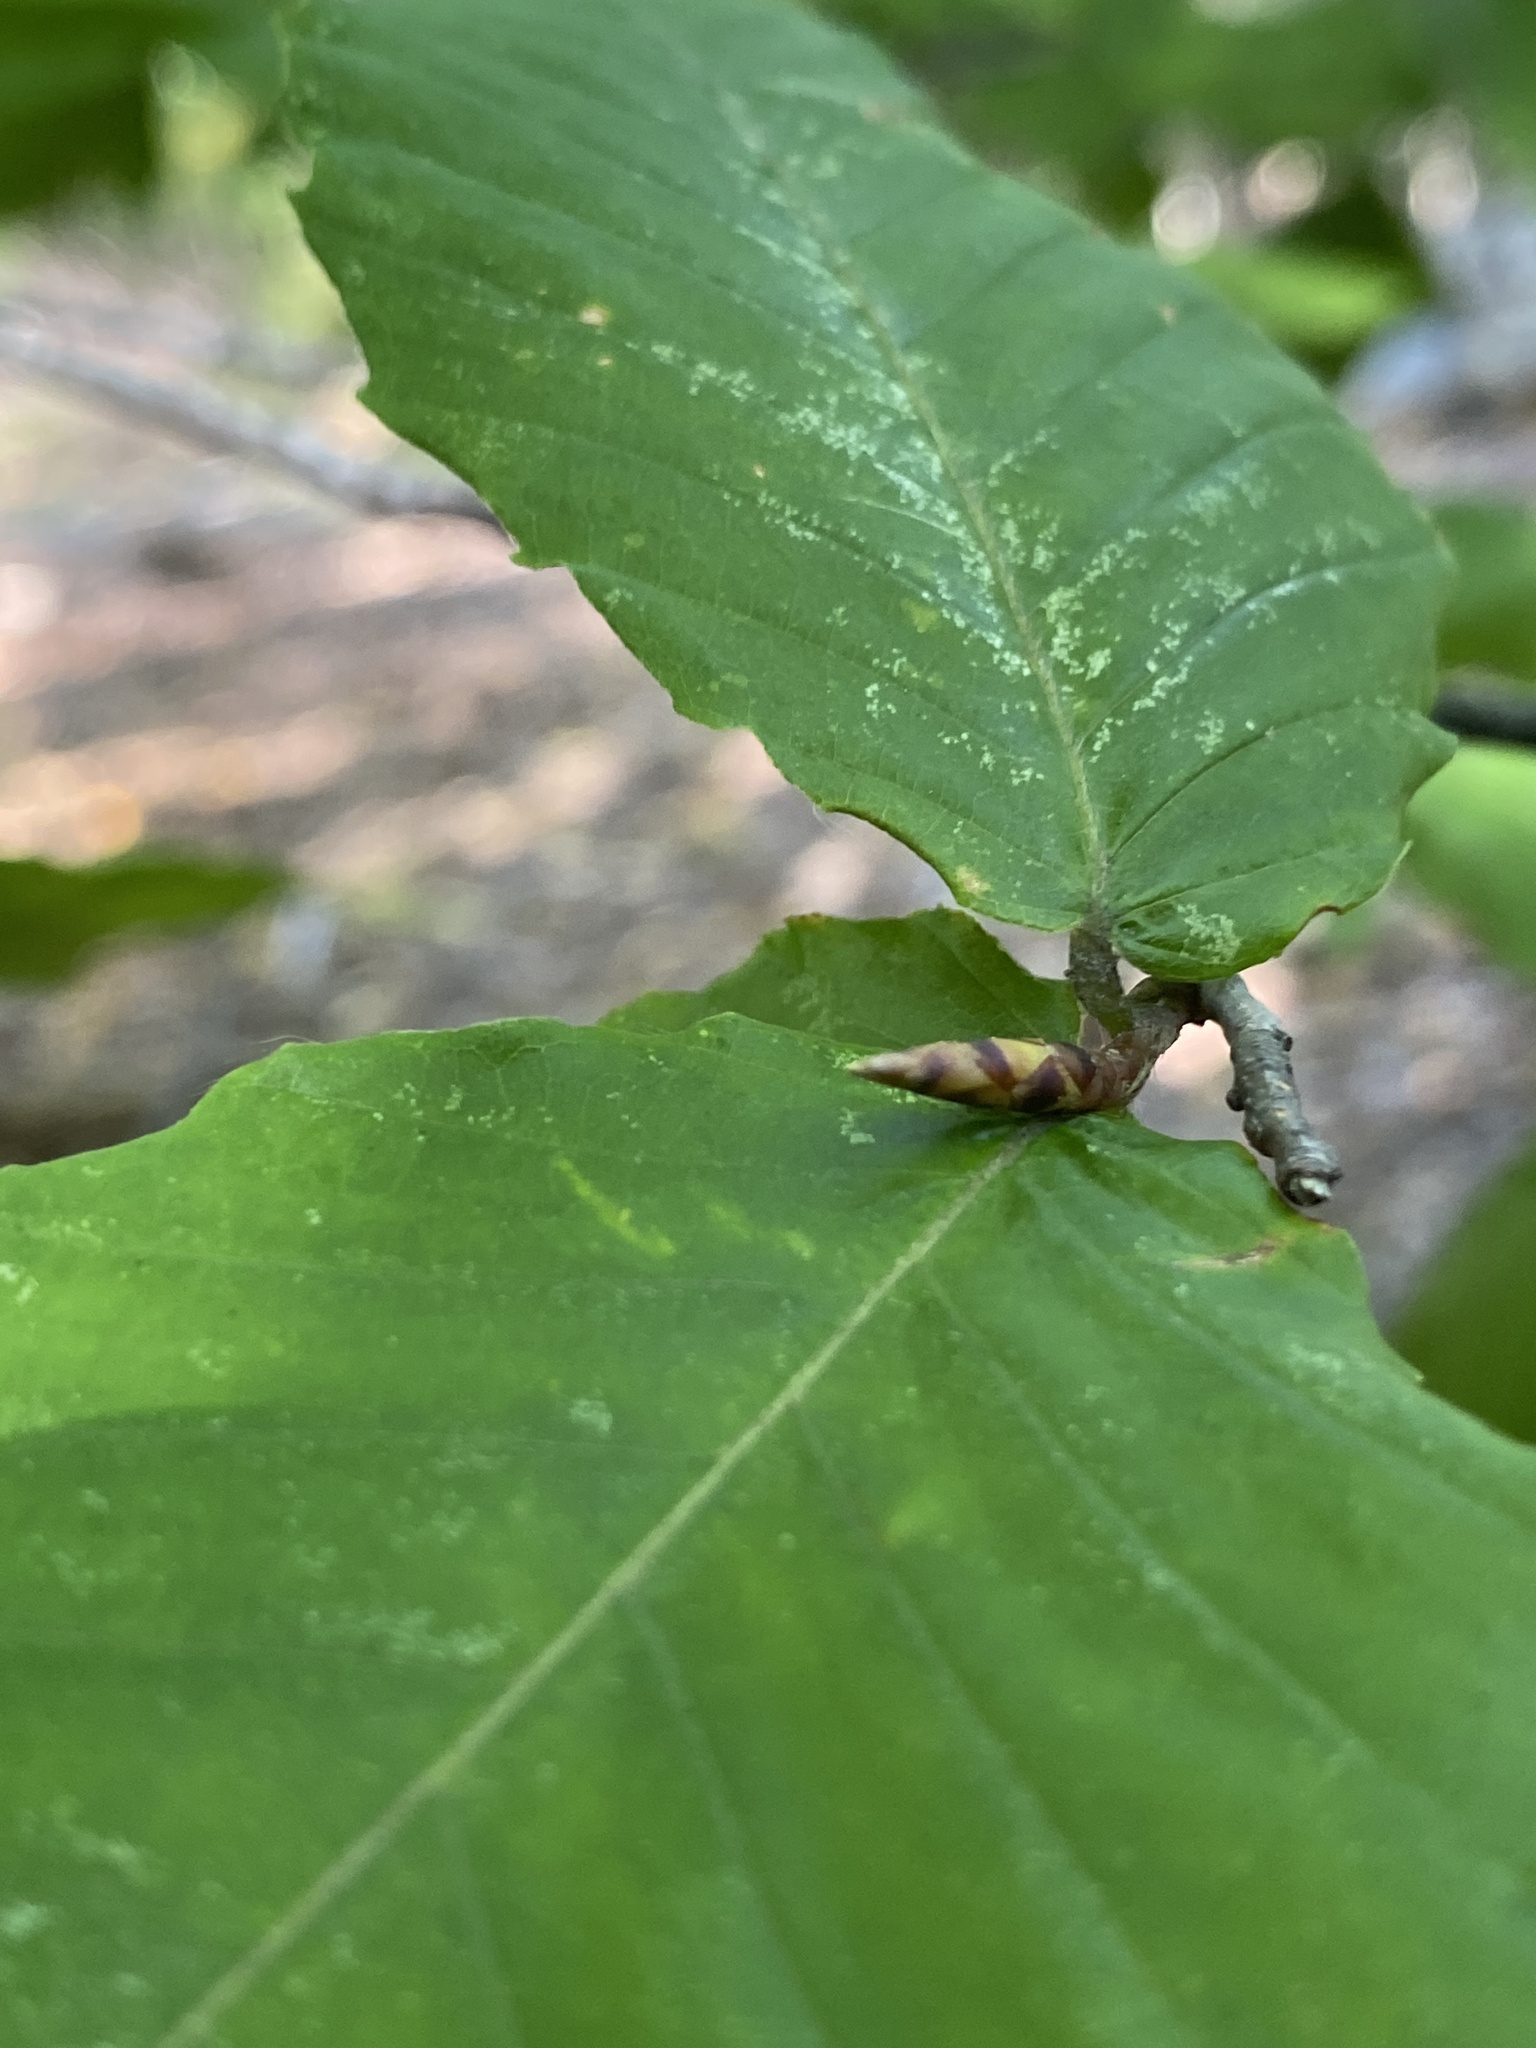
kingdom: Plantae
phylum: Tracheophyta
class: Magnoliopsida
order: Fagales
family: Fagaceae
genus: Fagus
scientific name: Fagus grandifolia
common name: American beech
